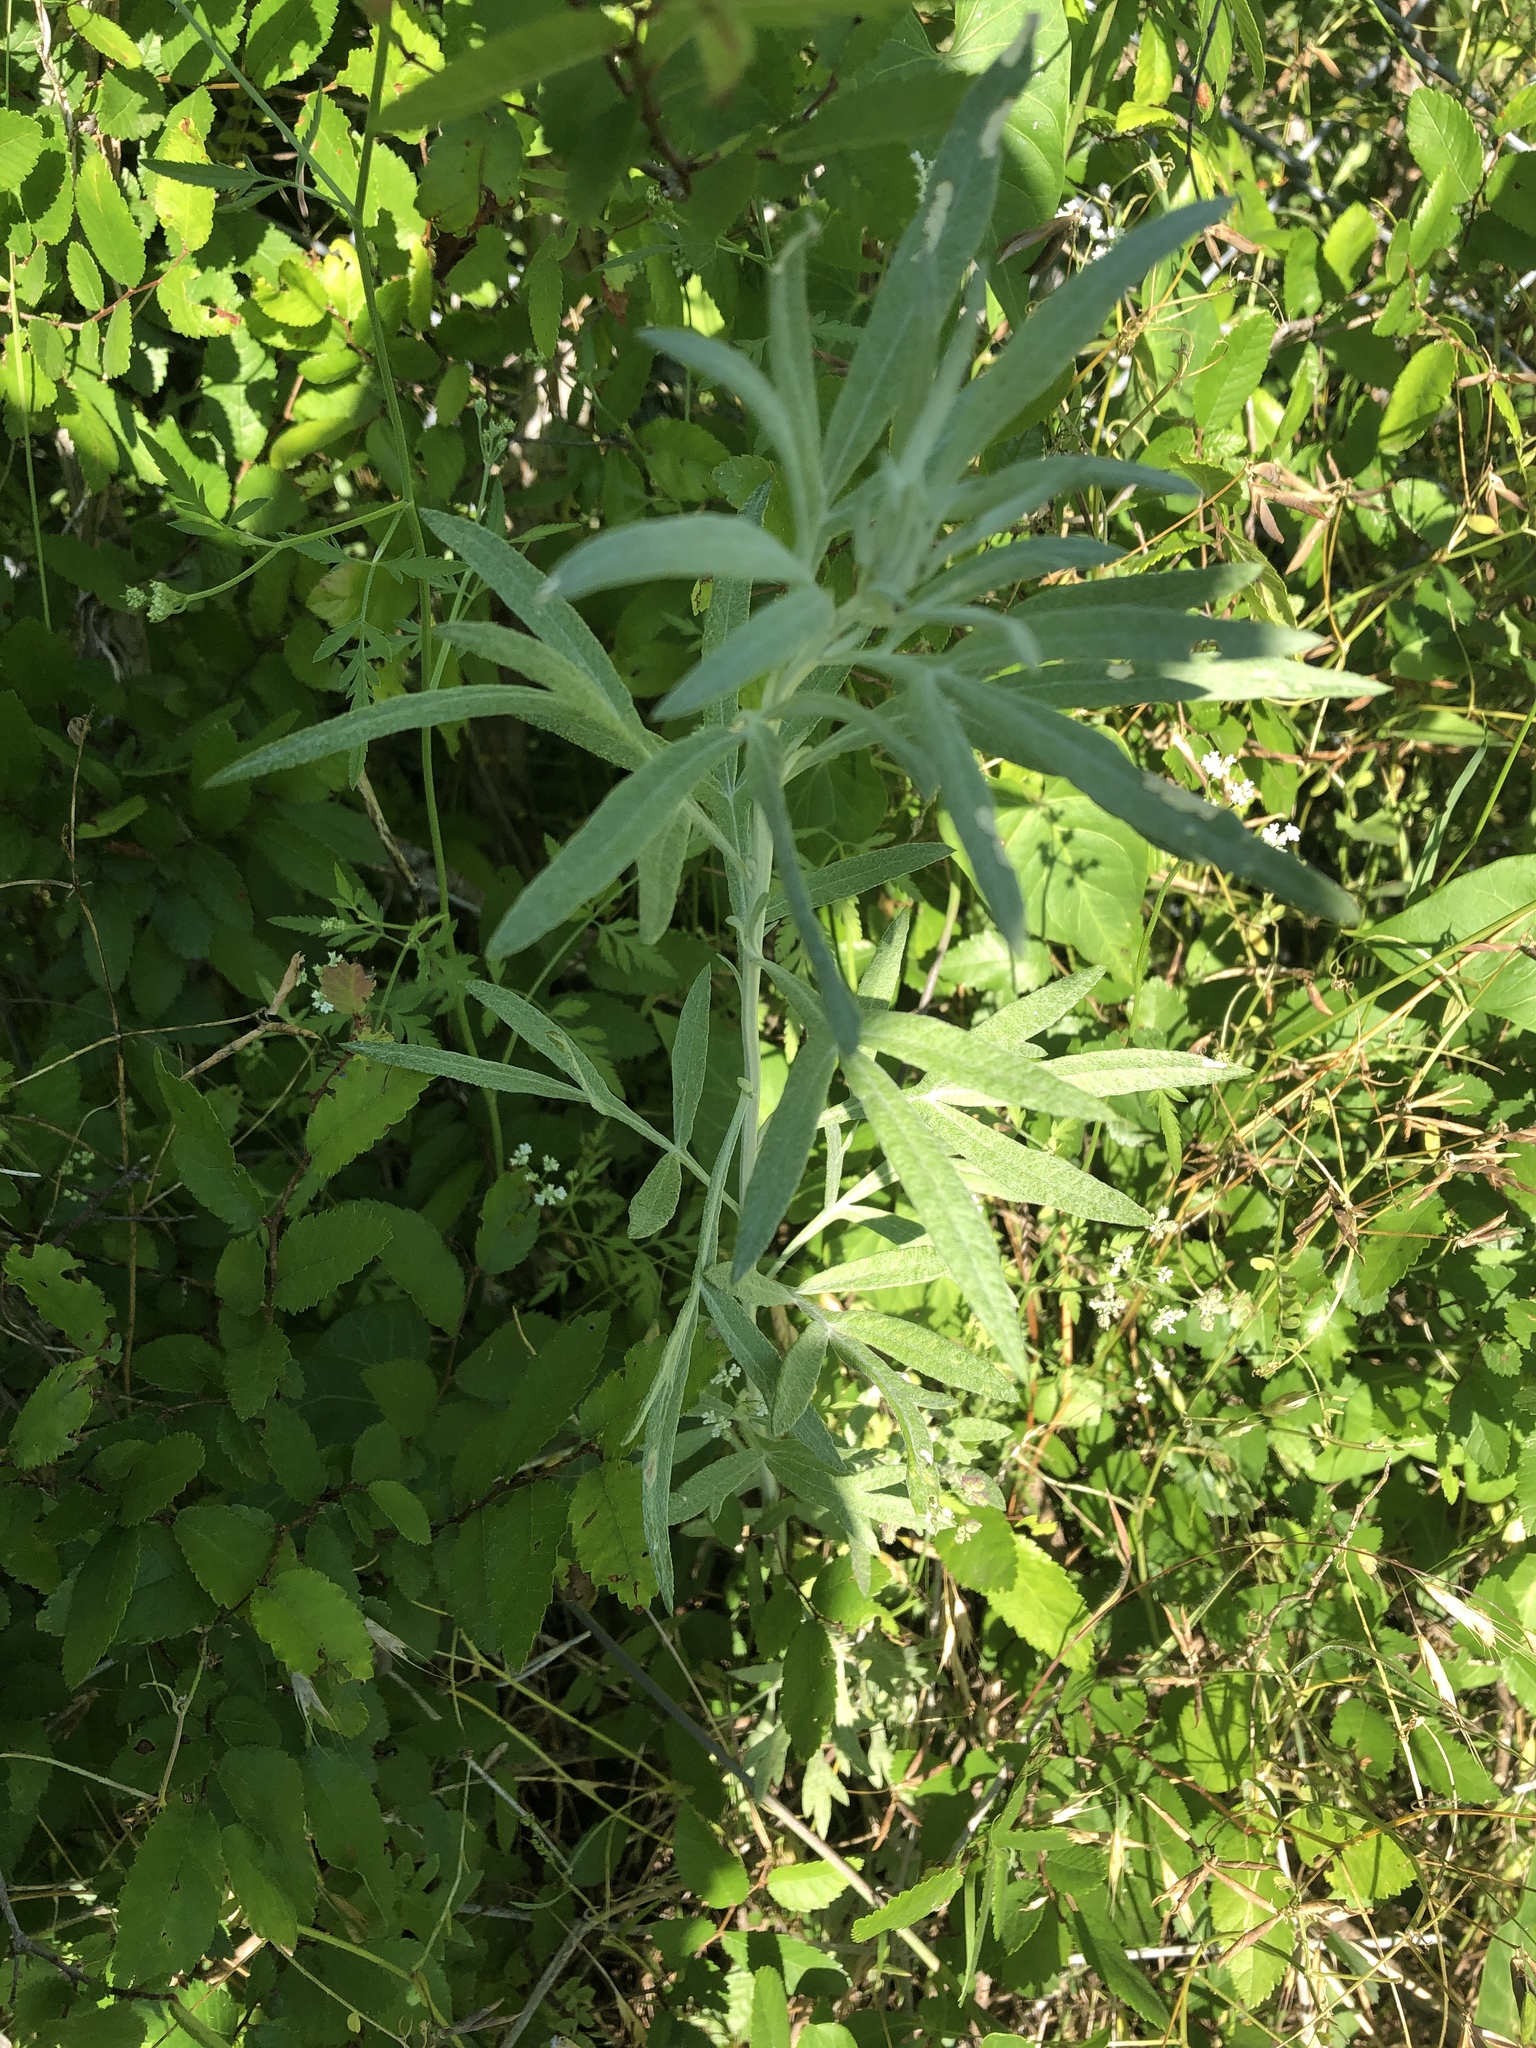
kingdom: Plantae
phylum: Tracheophyta
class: Magnoliopsida
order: Asterales
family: Asteraceae
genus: Artemisia
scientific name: Artemisia ludoviciana
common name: Western mugwort
